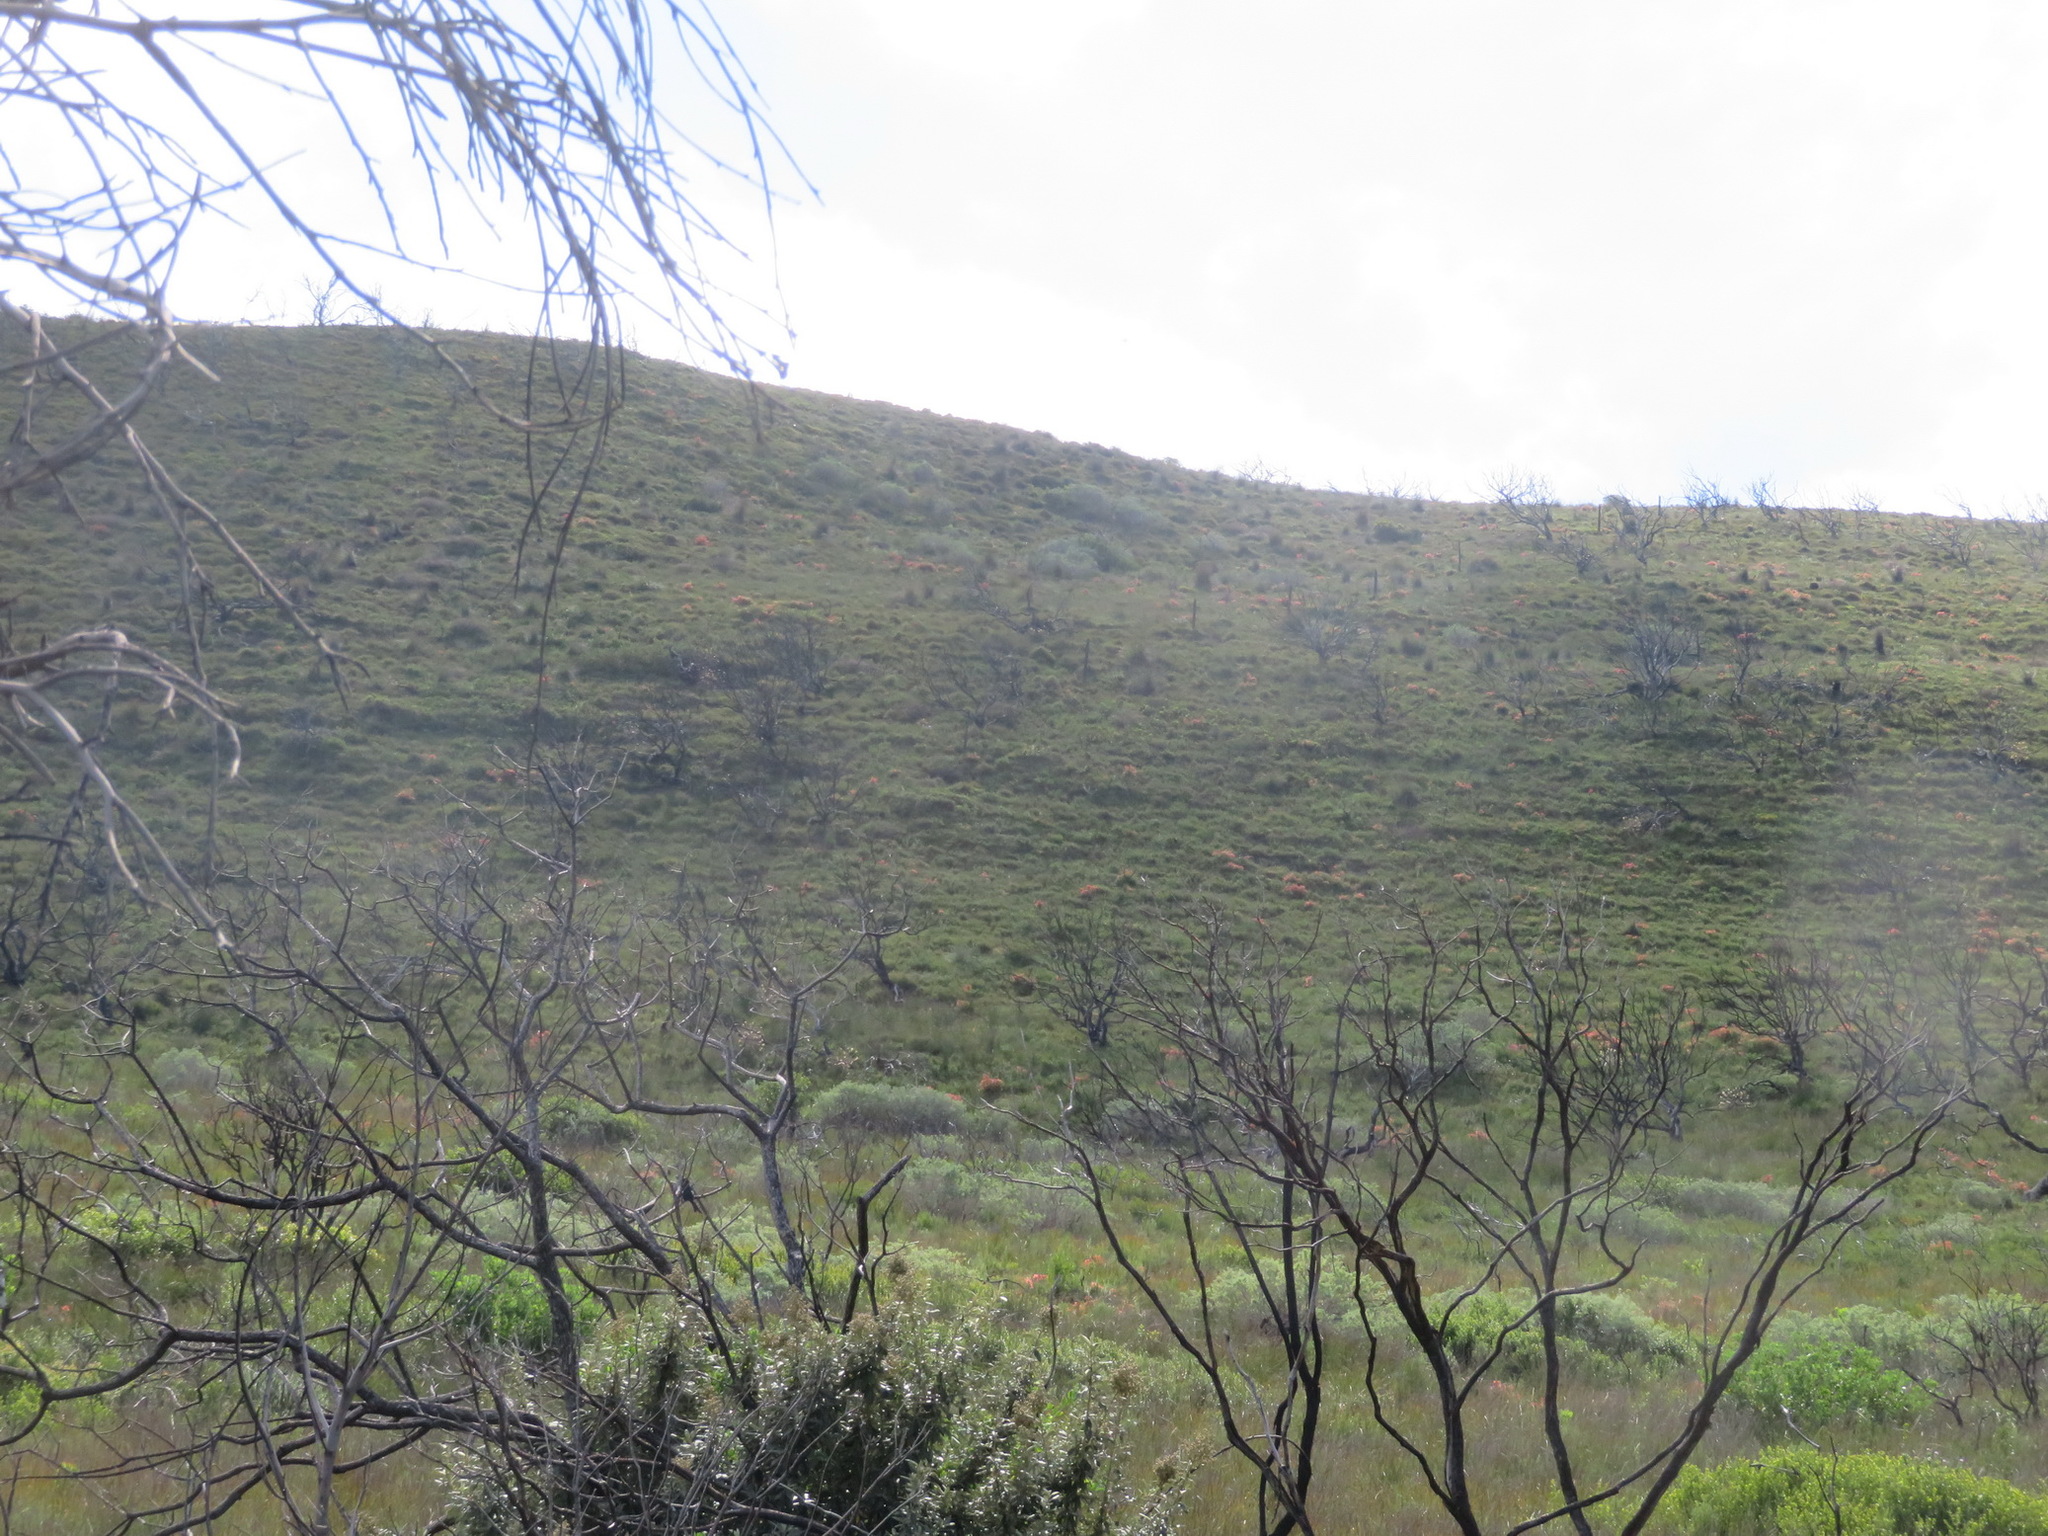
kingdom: Plantae
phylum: Tracheophyta
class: Magnoliopsida
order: Ericales
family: Ericaceae
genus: Erica
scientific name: Erica glandulosa
